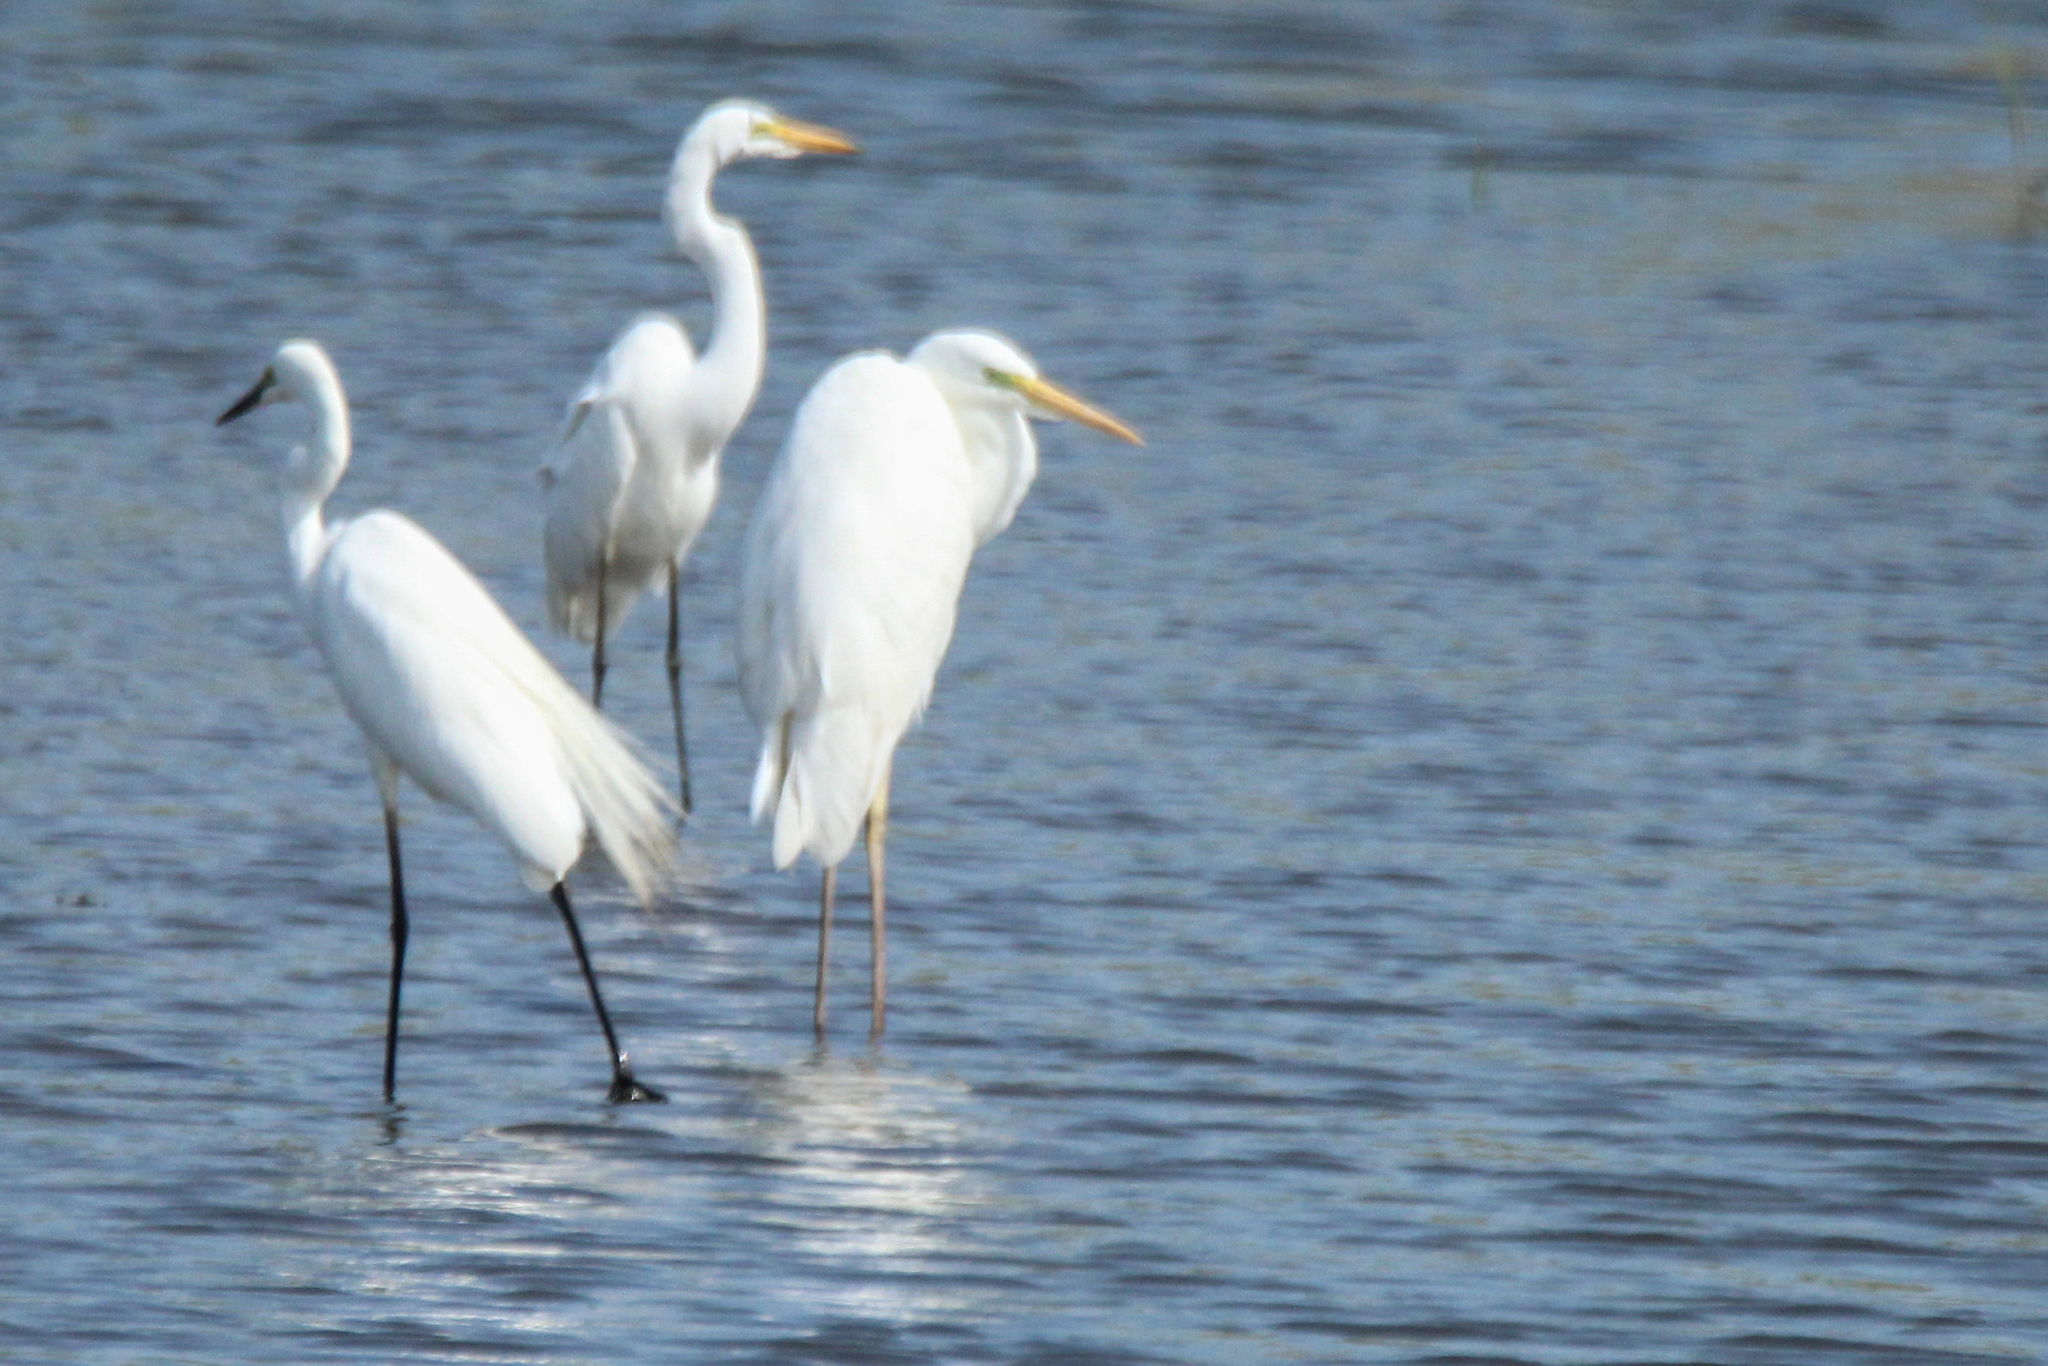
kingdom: Animalia
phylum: Chordata
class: Aves
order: Pelecaniformes
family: Ardeidae
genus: Ardea
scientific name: Ardea alba
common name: Great egret
